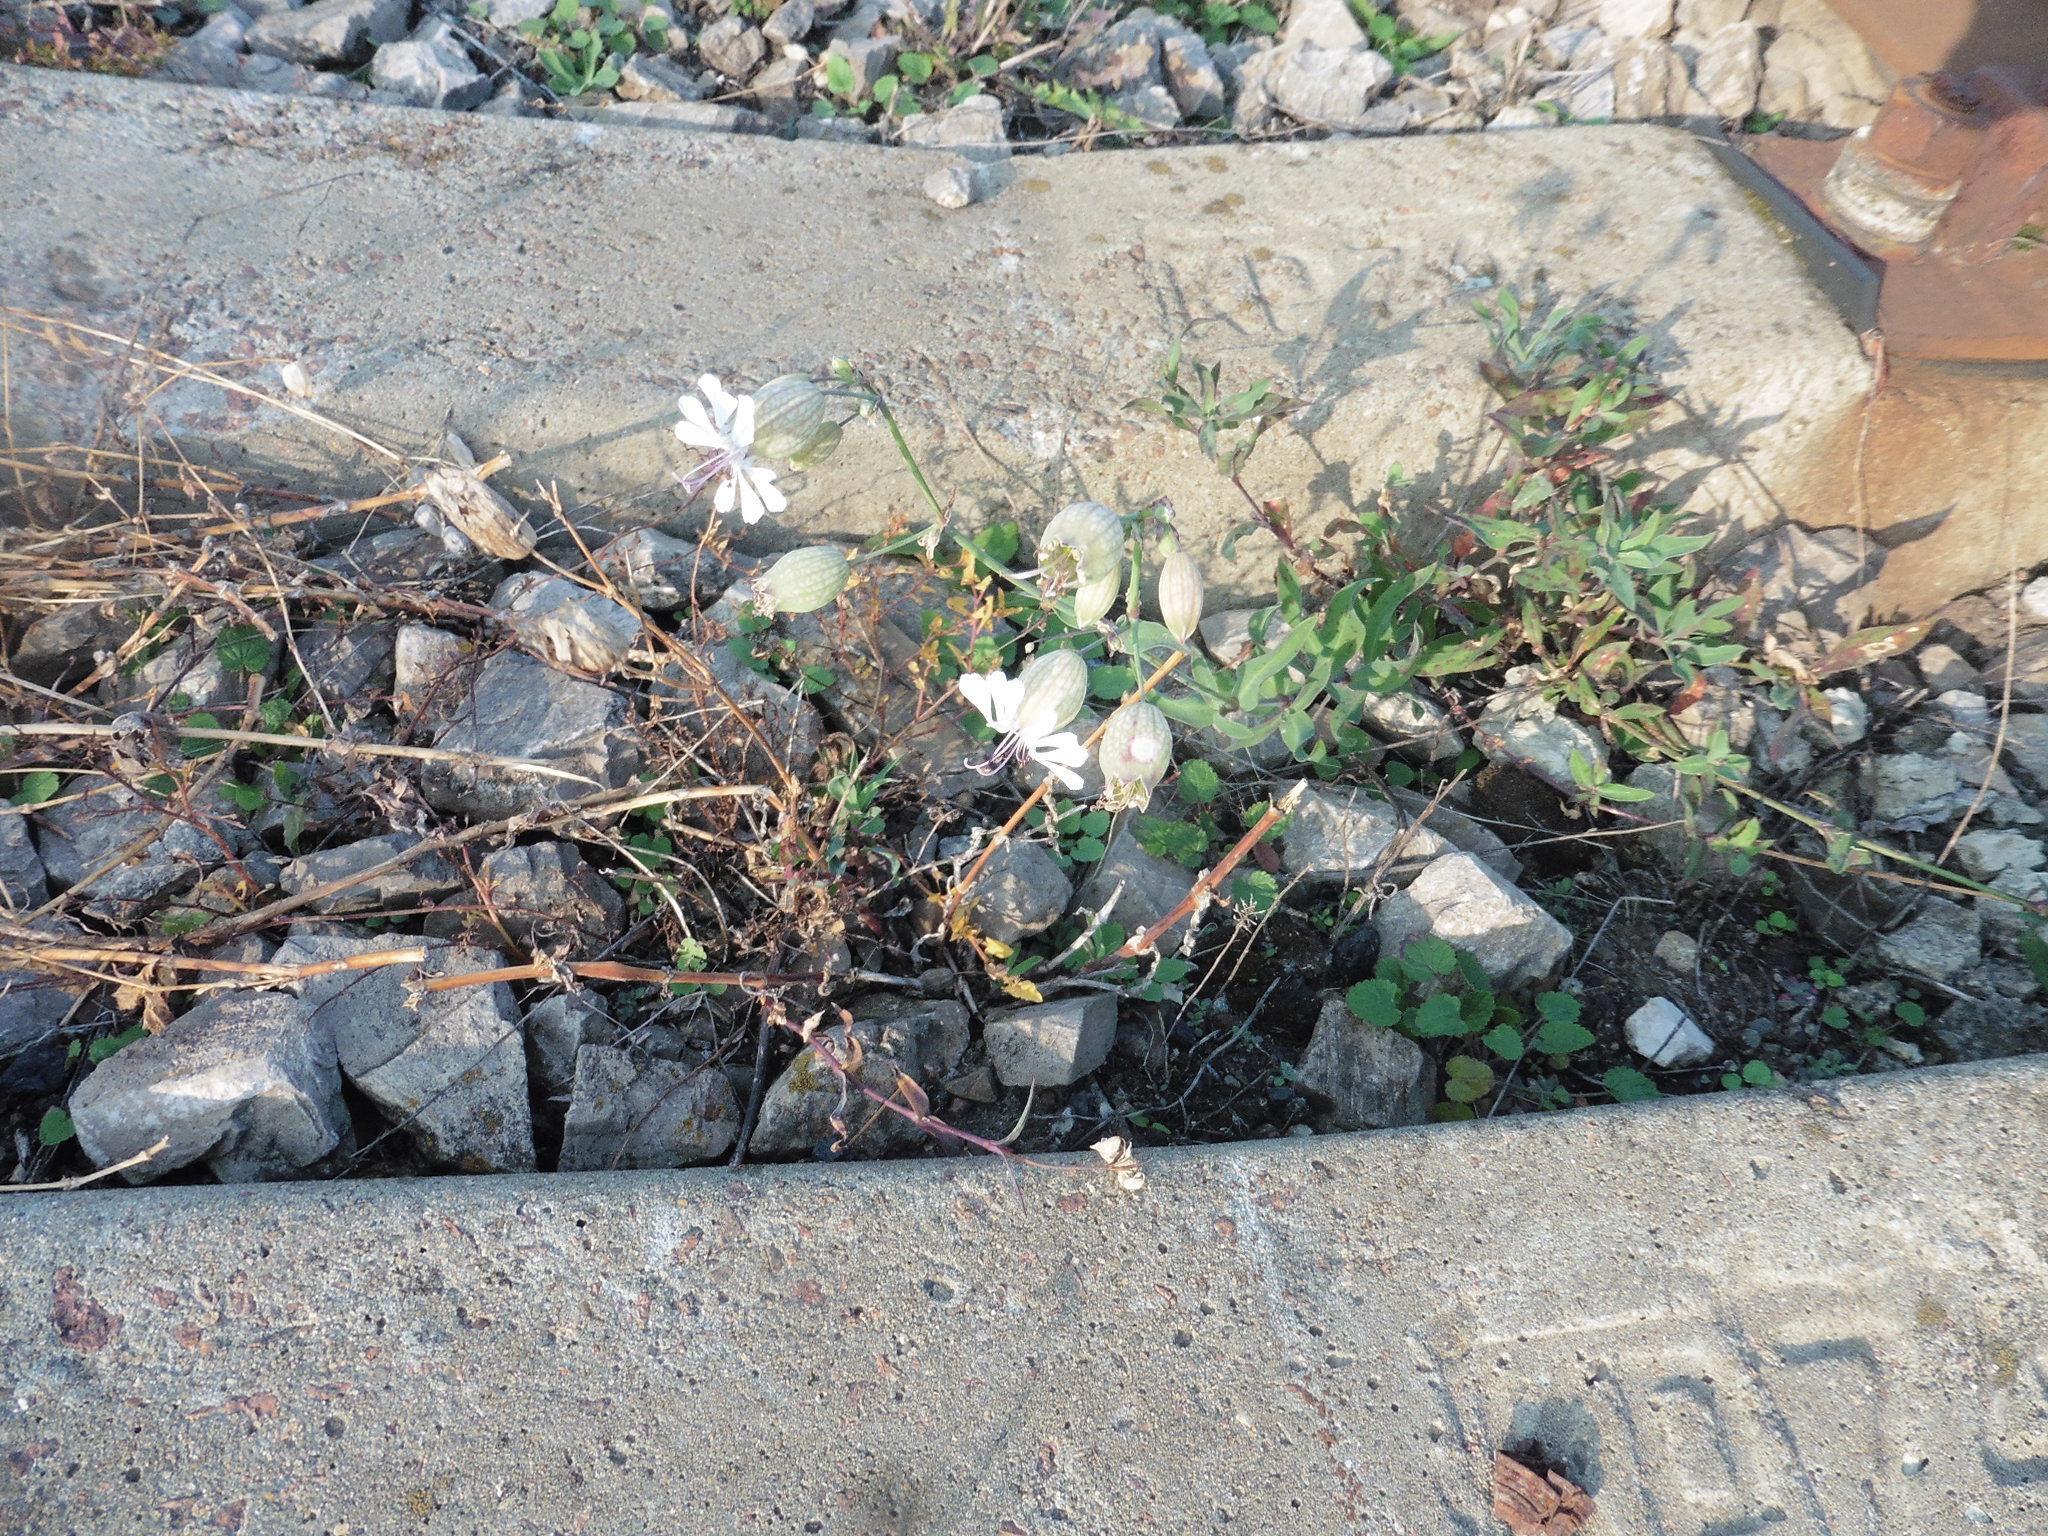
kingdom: Plantae
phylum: Tracheophyta
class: Magnoliopsida
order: Caryophyllales
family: Caryophyllaceae
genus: Silene
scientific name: Silene vulgaris
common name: Bladder campion
